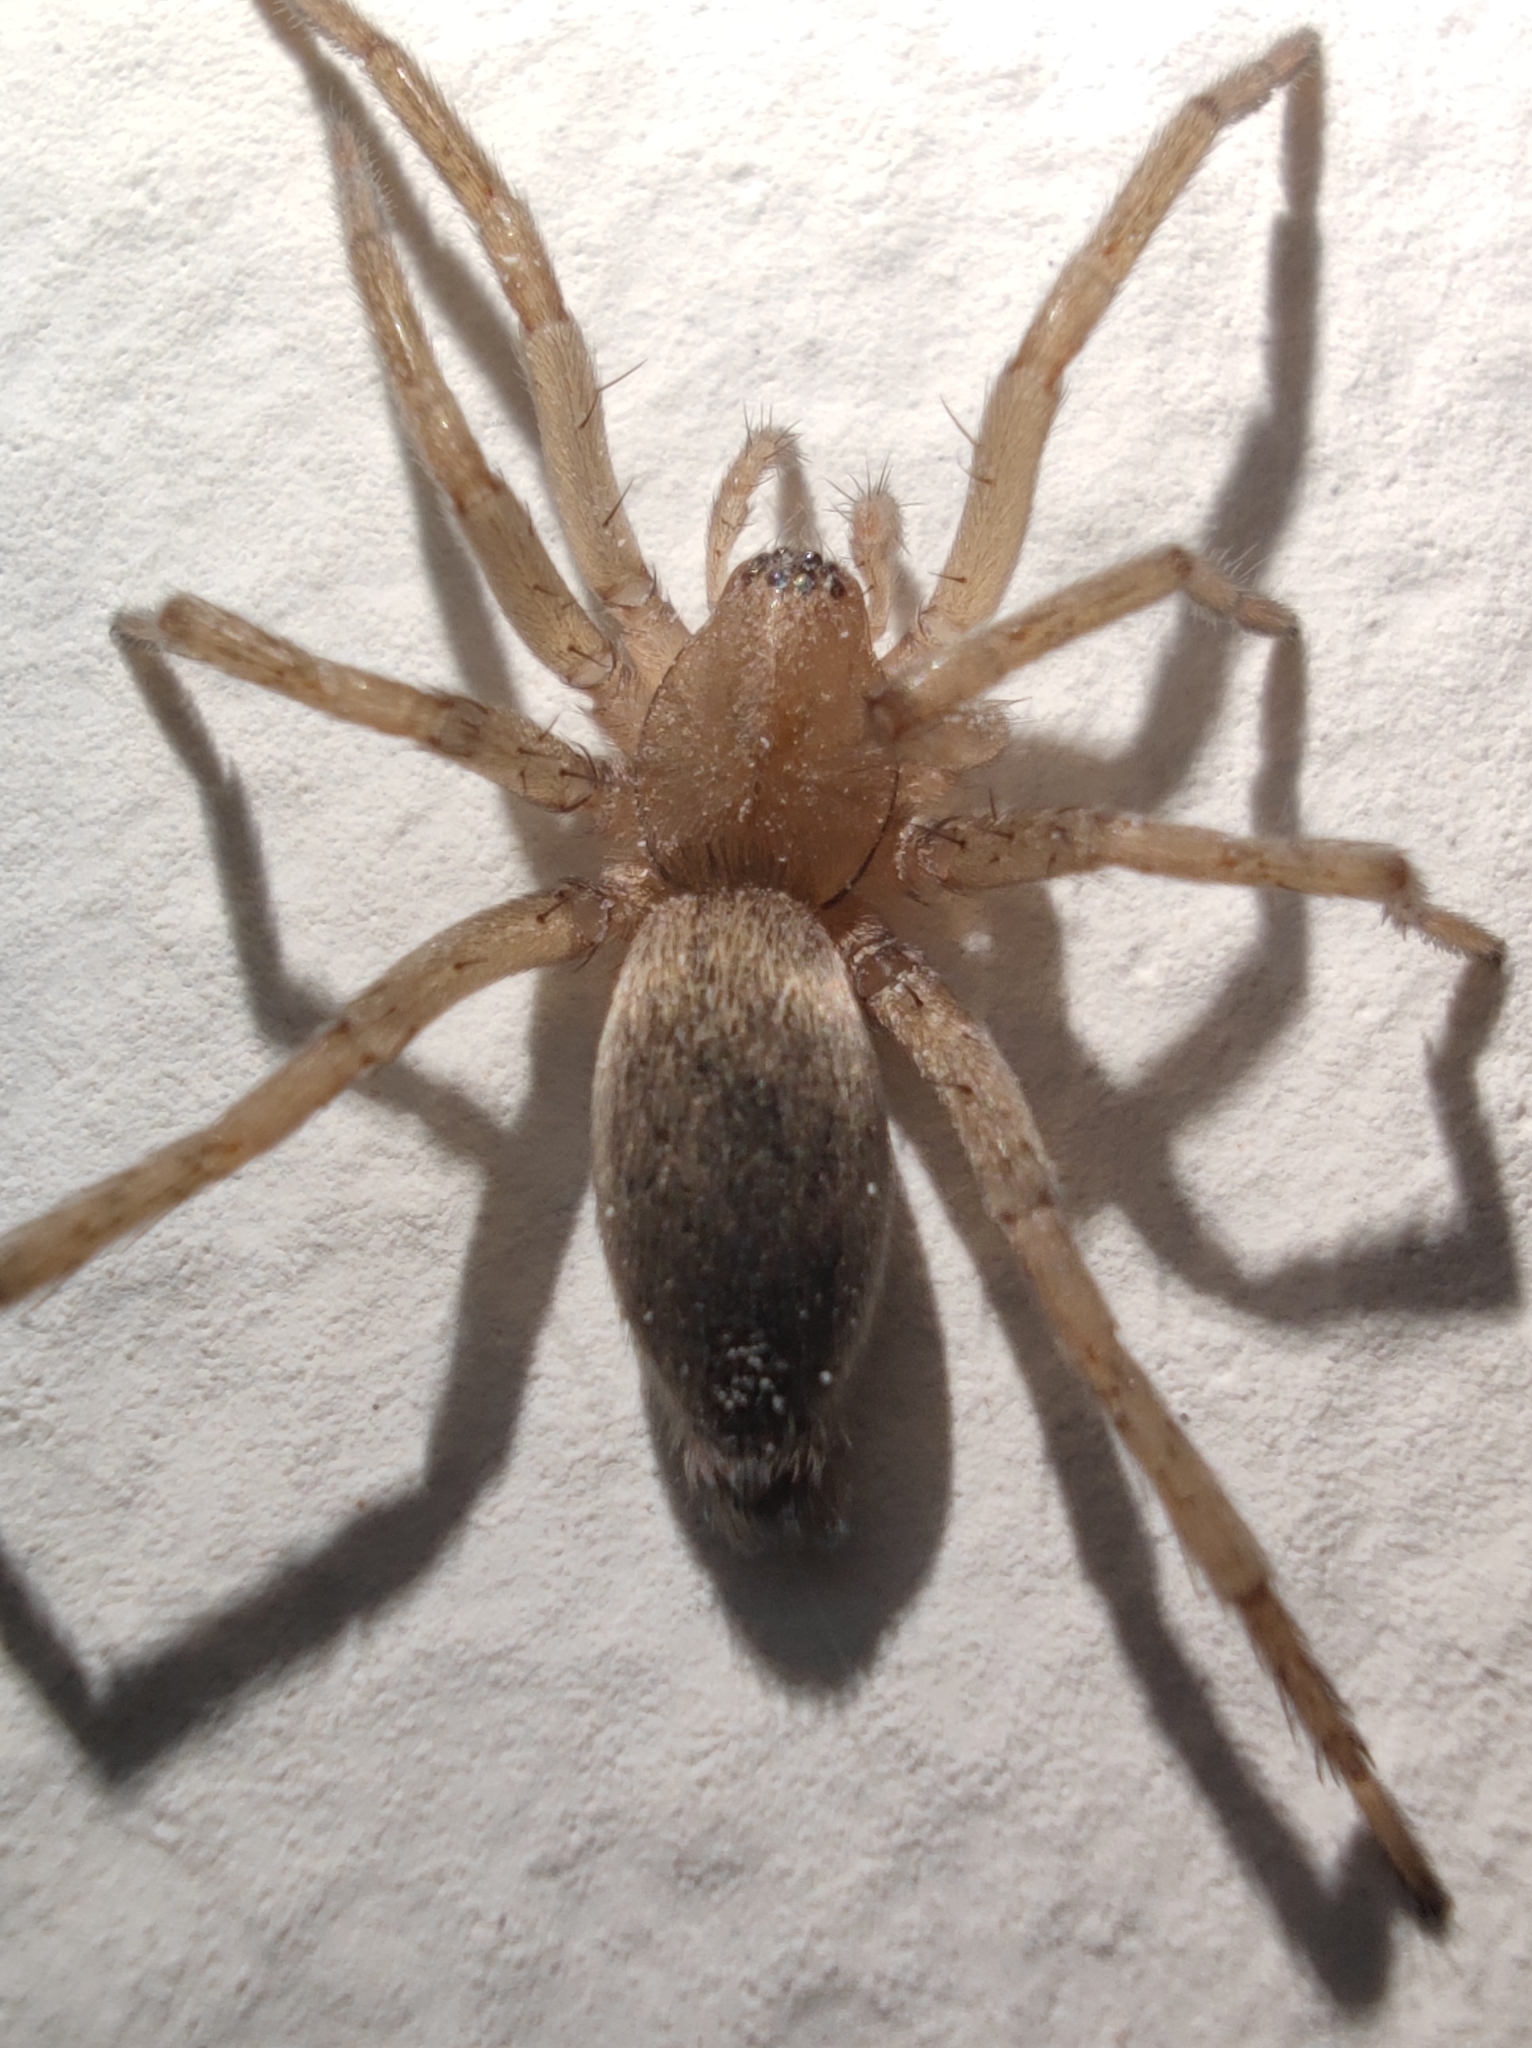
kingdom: Animalia
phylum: Arthropoda
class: Arachnida
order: Araneae
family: Gnaphosidae
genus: Drassodes
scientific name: Drassodes
